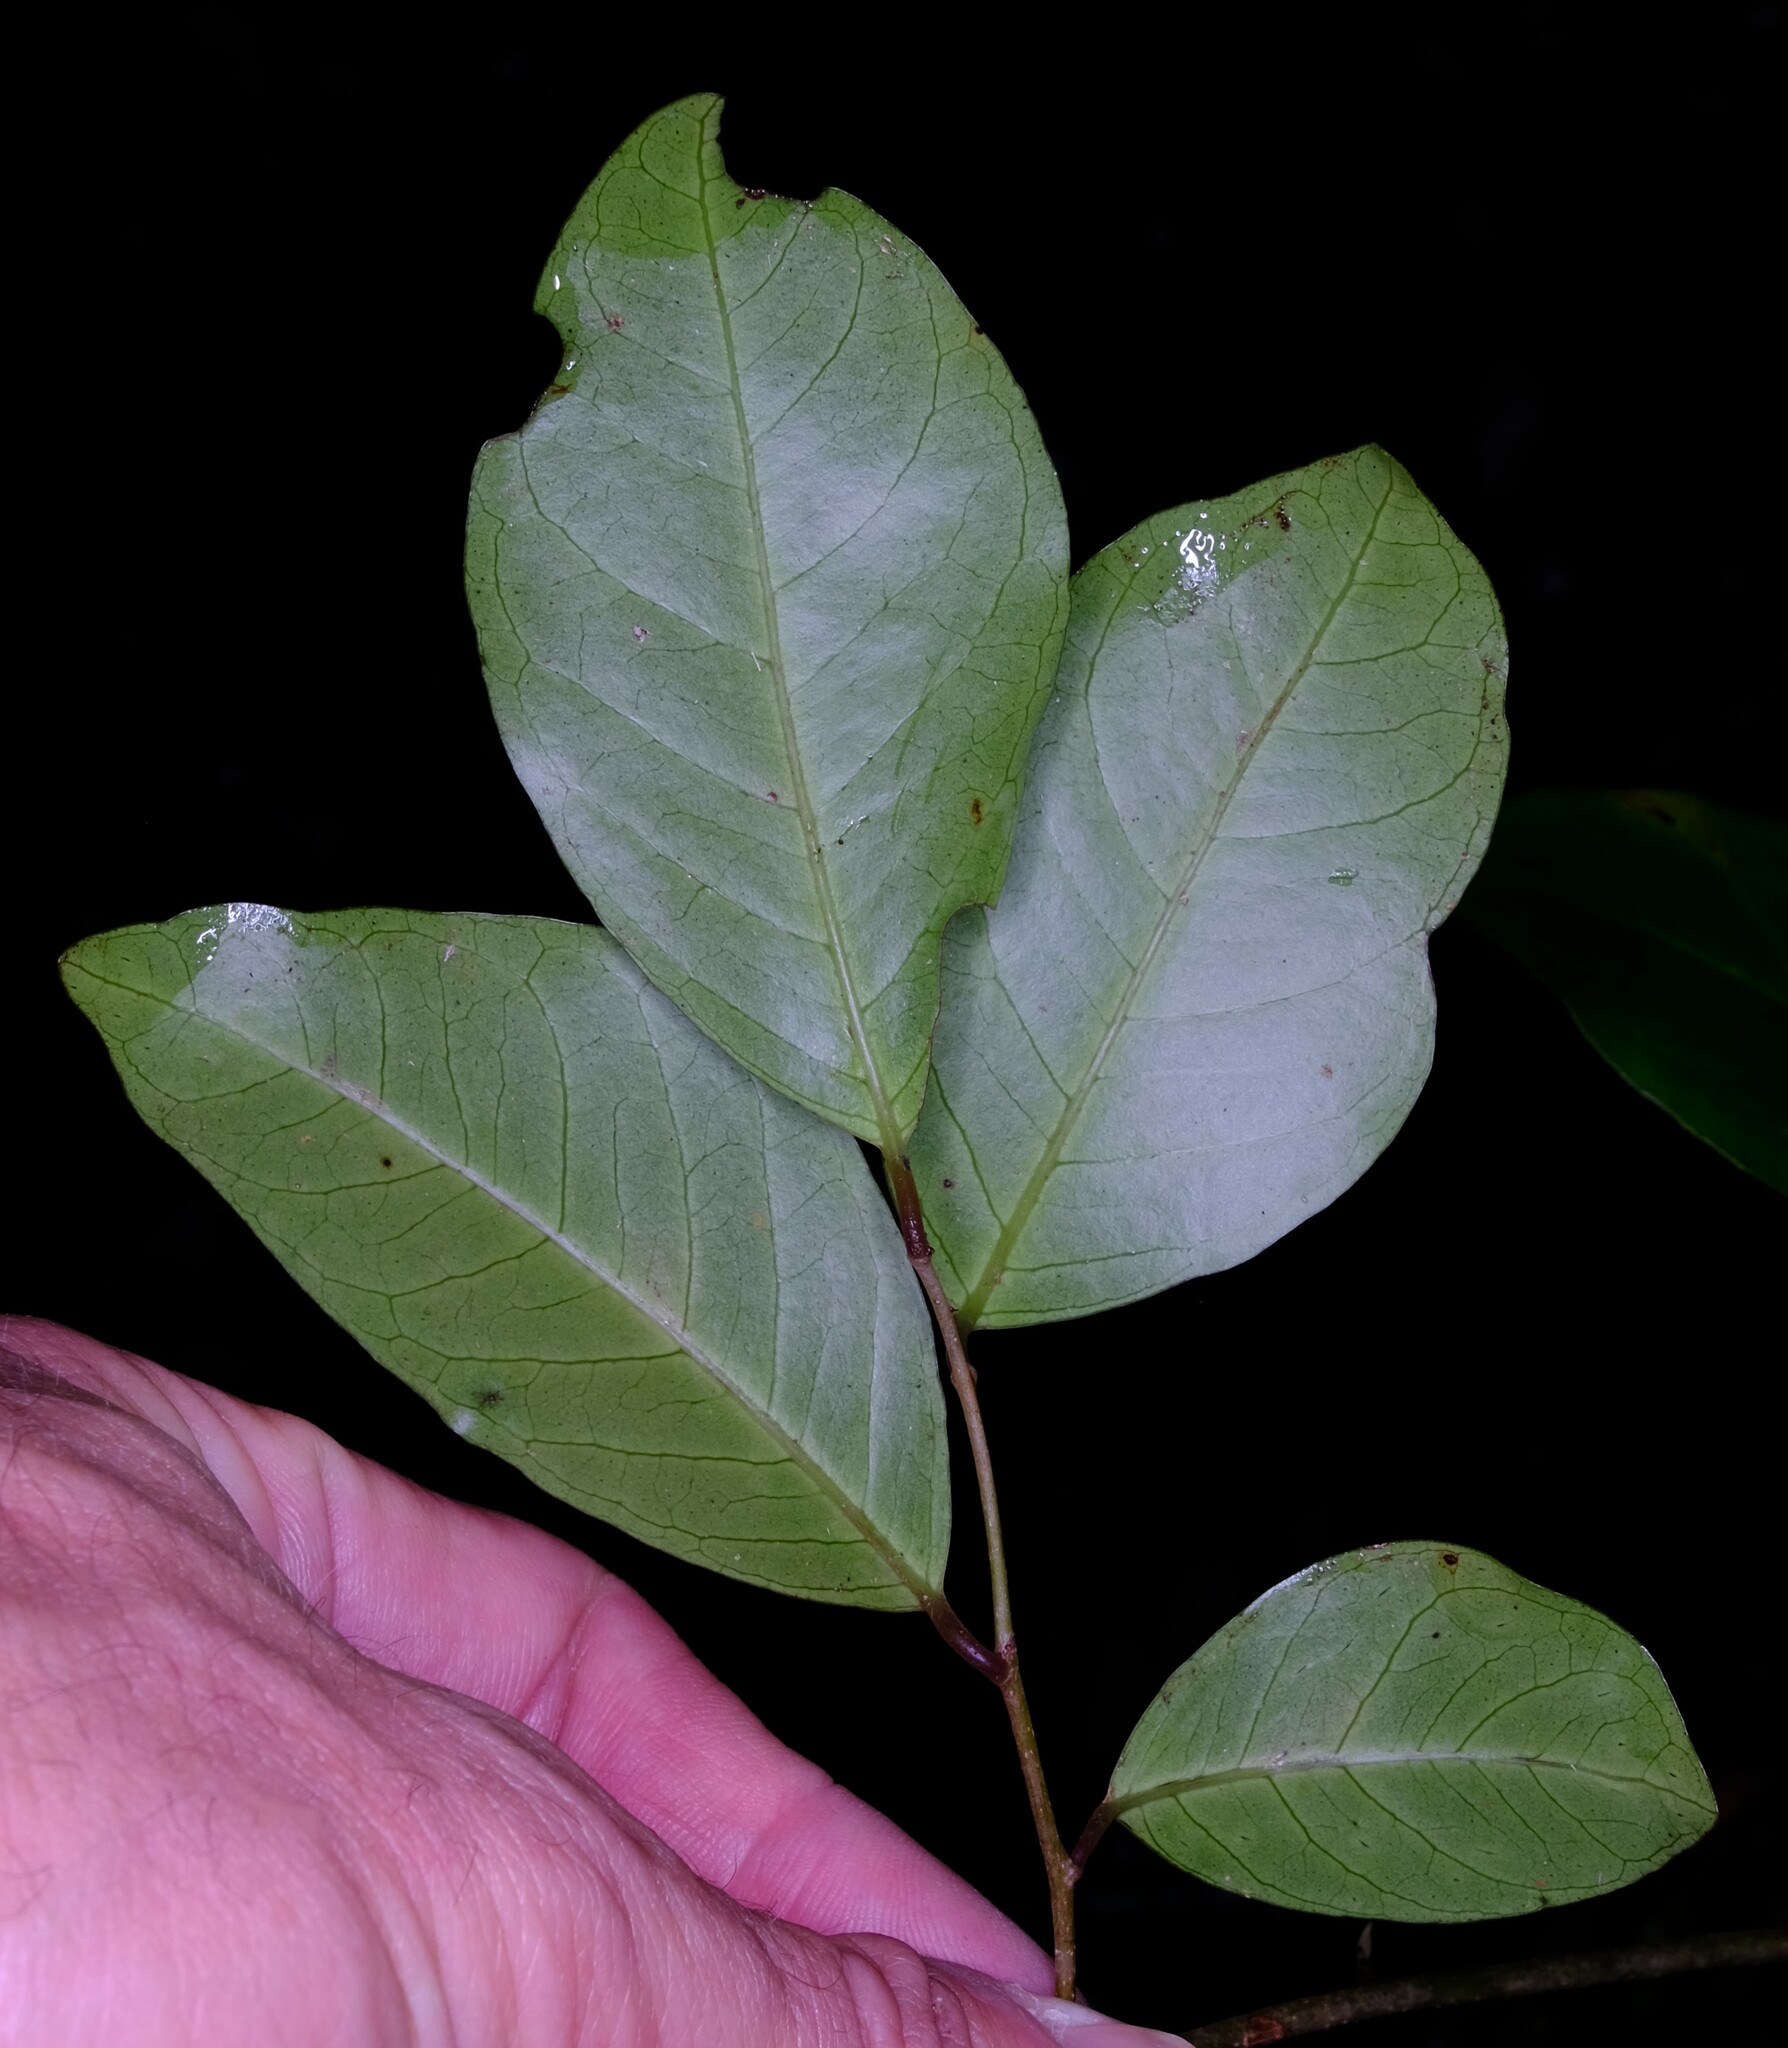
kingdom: Plantae
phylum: Tracheophyta
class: Magnoliopsida
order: Ericales
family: Primulaceae
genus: Embelia
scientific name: Embelia australiana
